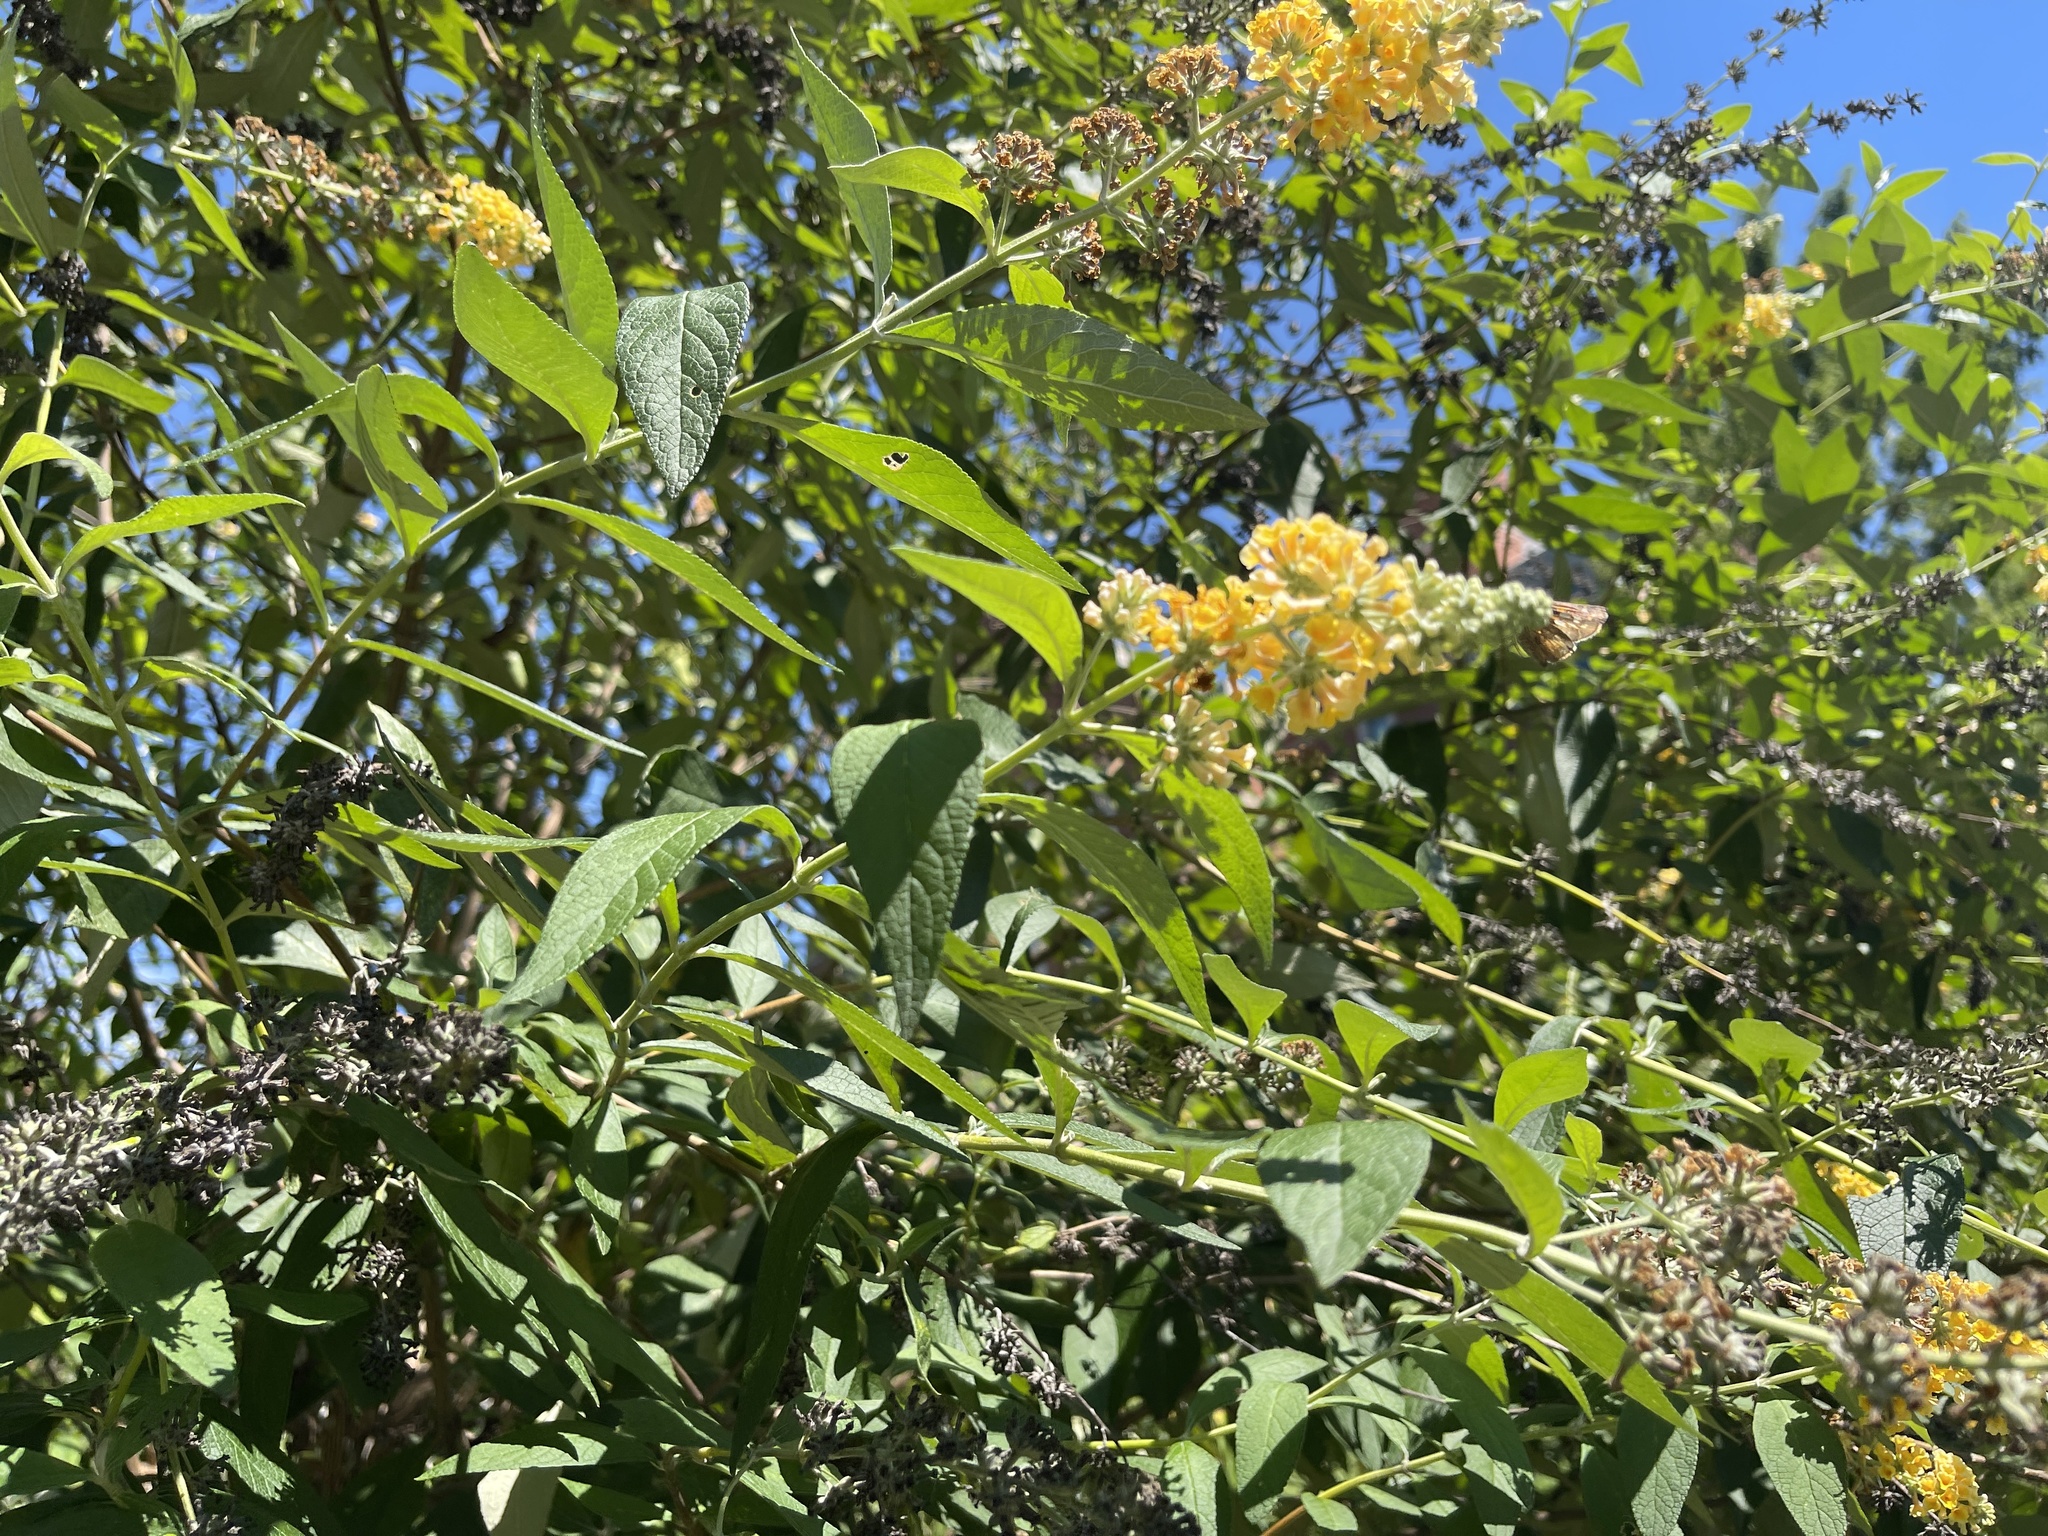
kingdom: Plantae
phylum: Tracheophyta
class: Magnoliopsida
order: Lamiales
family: Scrophulariaceae
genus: Buddleja
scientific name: Buddleja weyeriana
